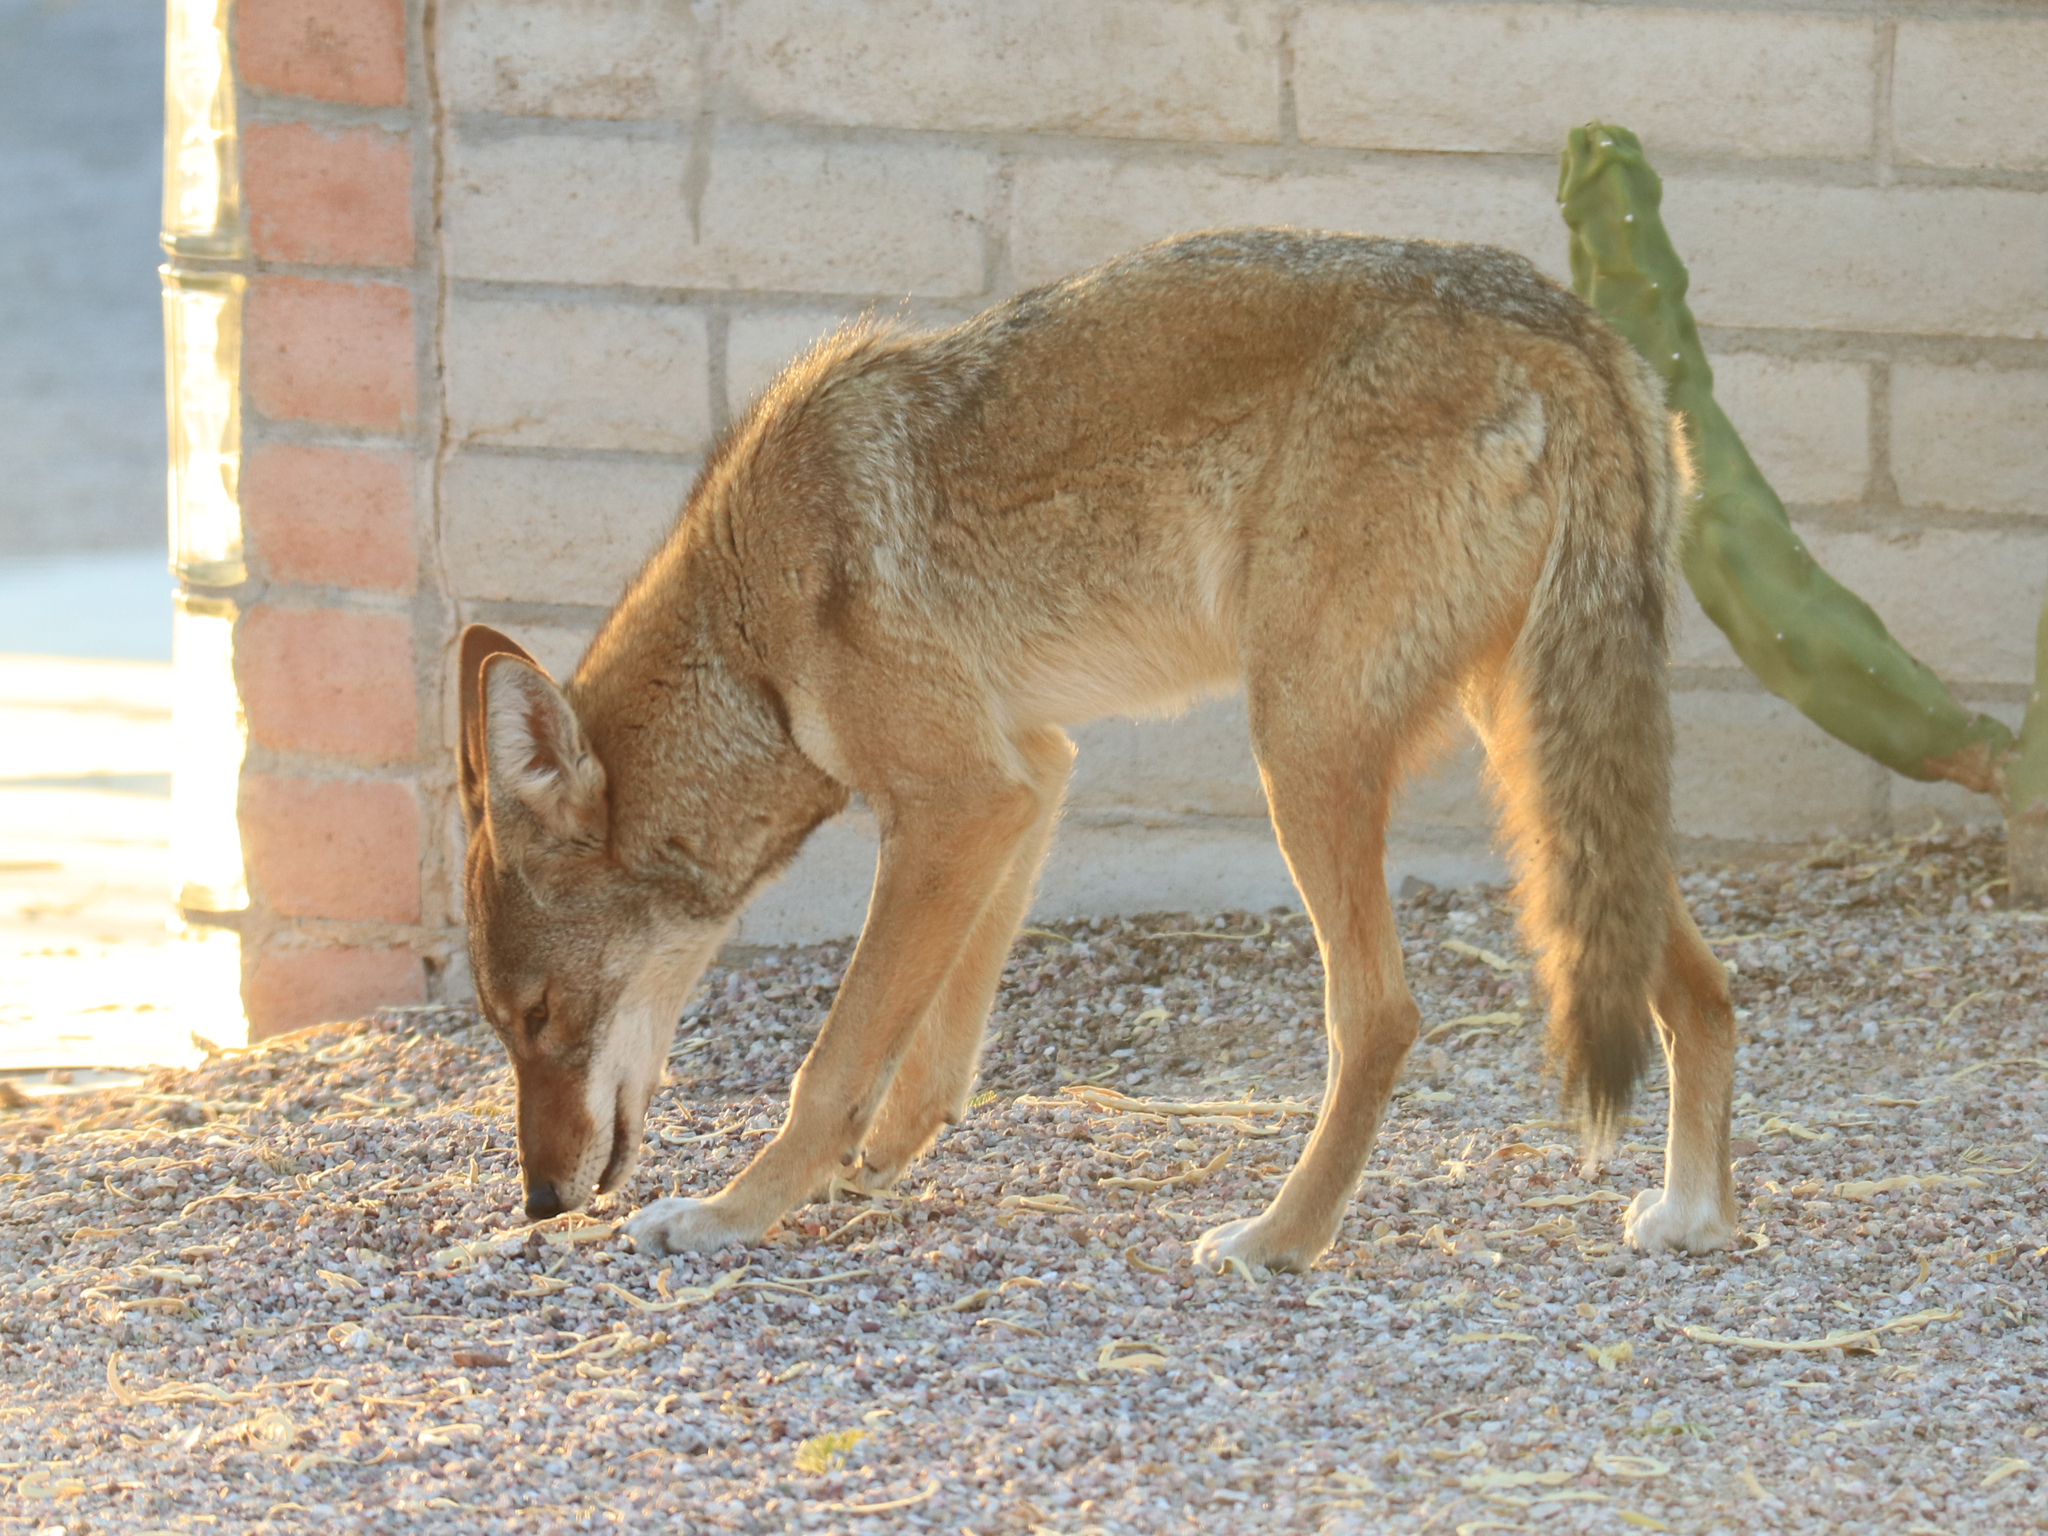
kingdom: Animalia
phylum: Chordata
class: Mammalia
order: Carnivora
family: Canidae
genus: Canis
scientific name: Canis latrans
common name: Coyote
